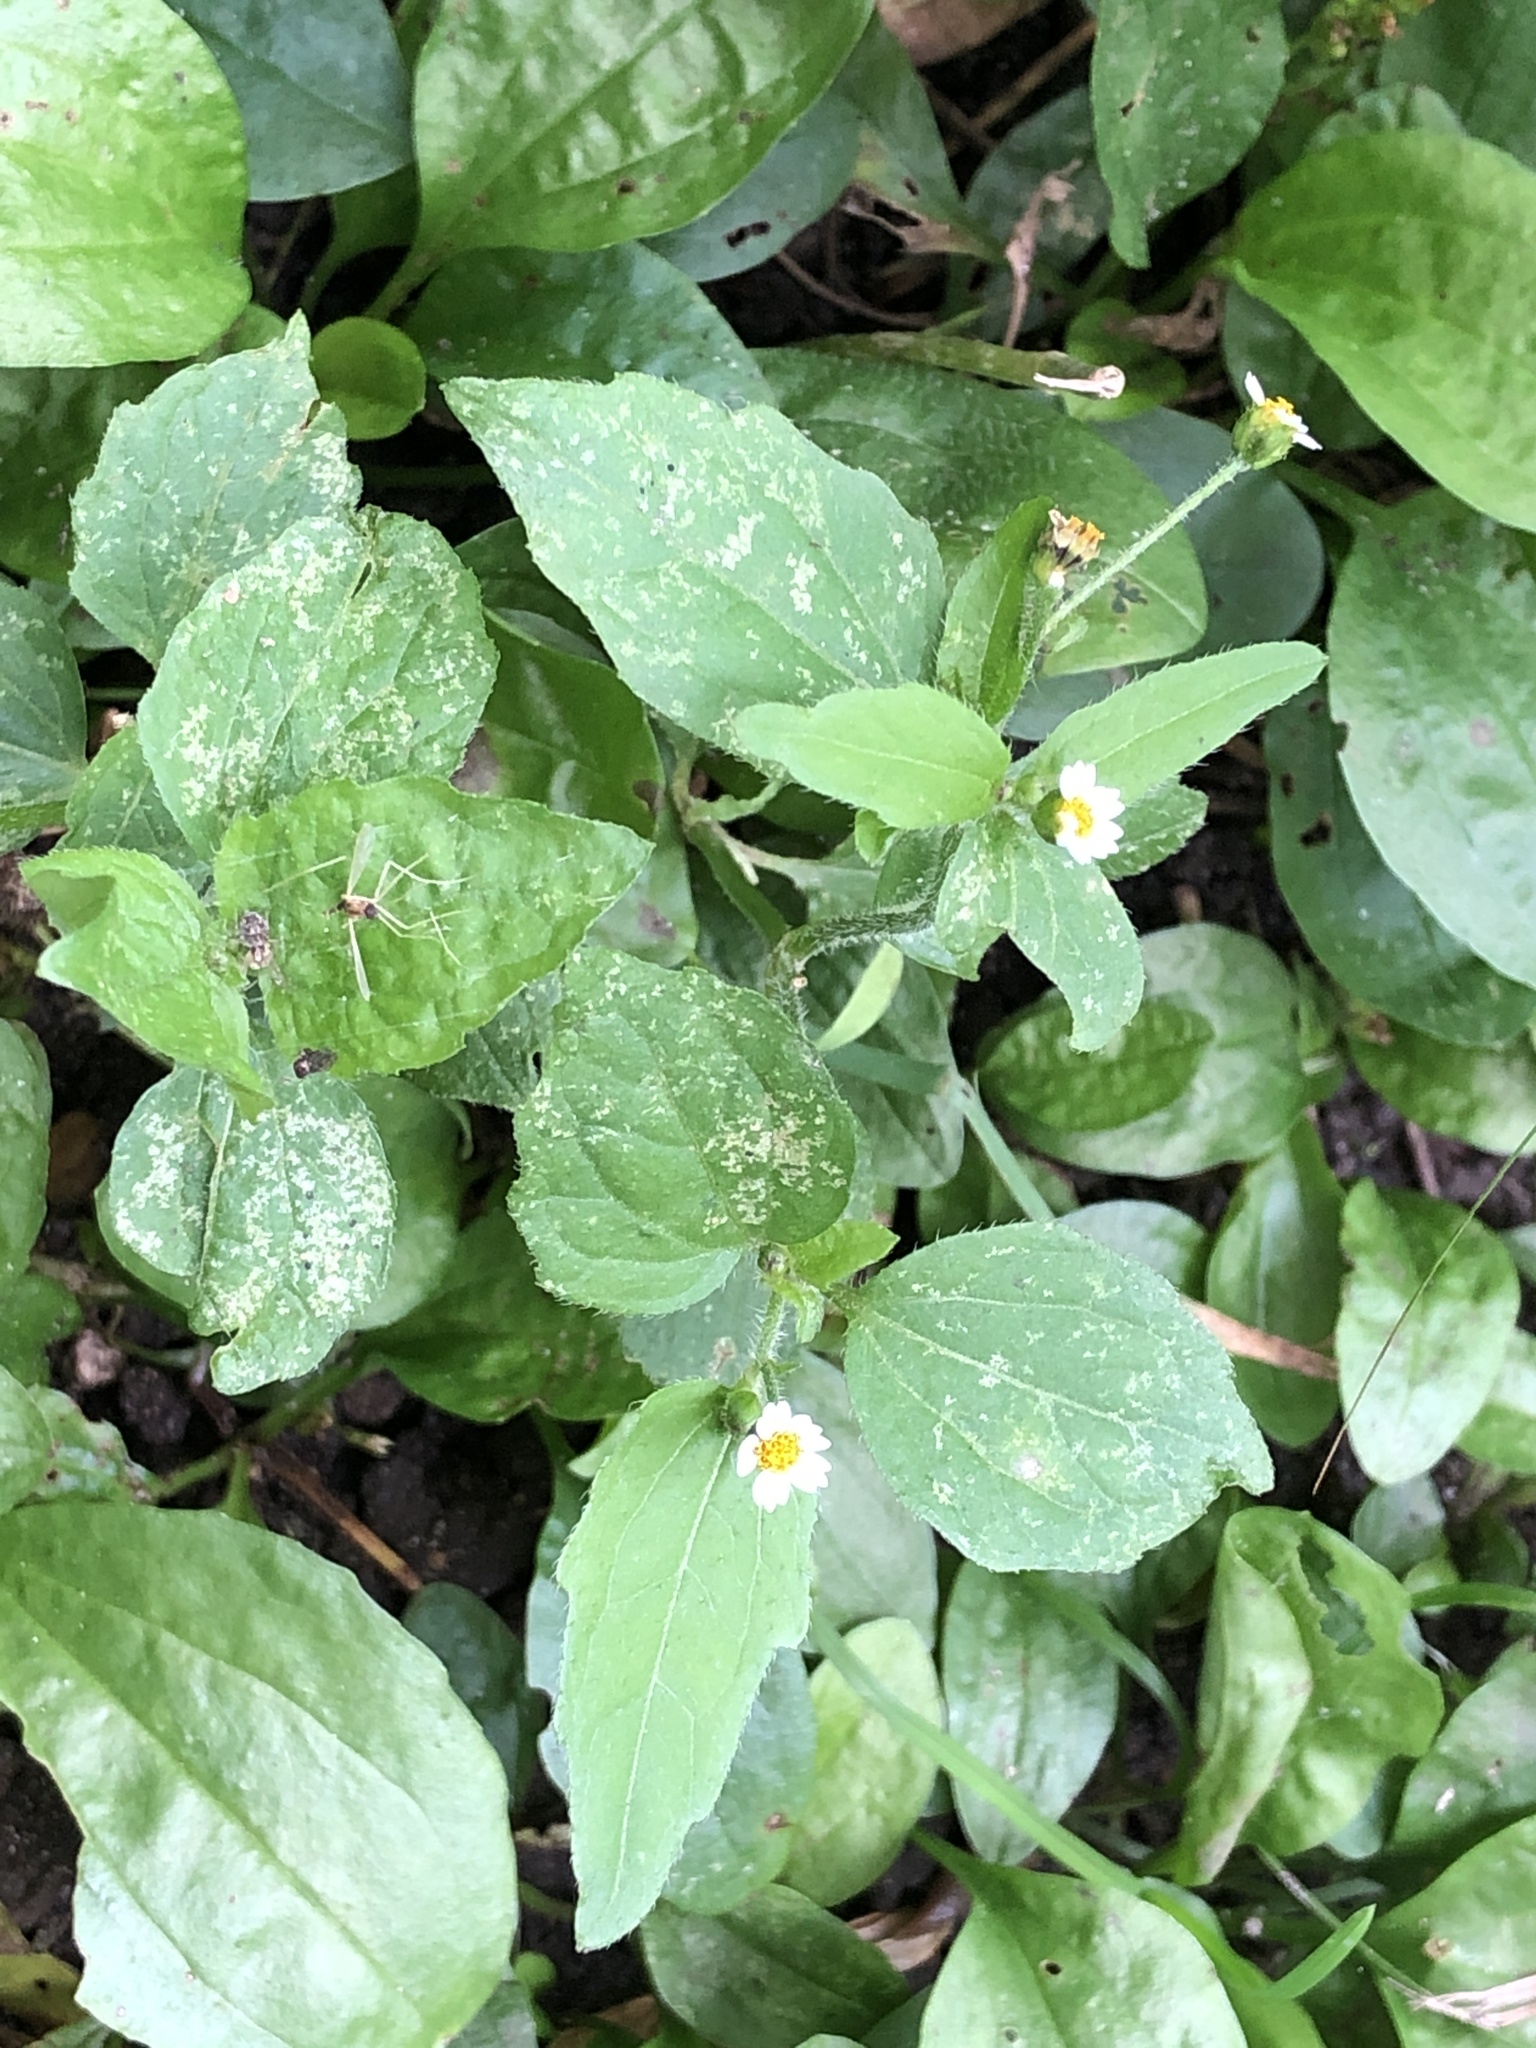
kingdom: Plantae
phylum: Tracheophyta
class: Magnoliopsida
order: Asterales
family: Asteraceae
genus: Galinsoga
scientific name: Galinsoga quadriradiata
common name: Shaggy soldier
